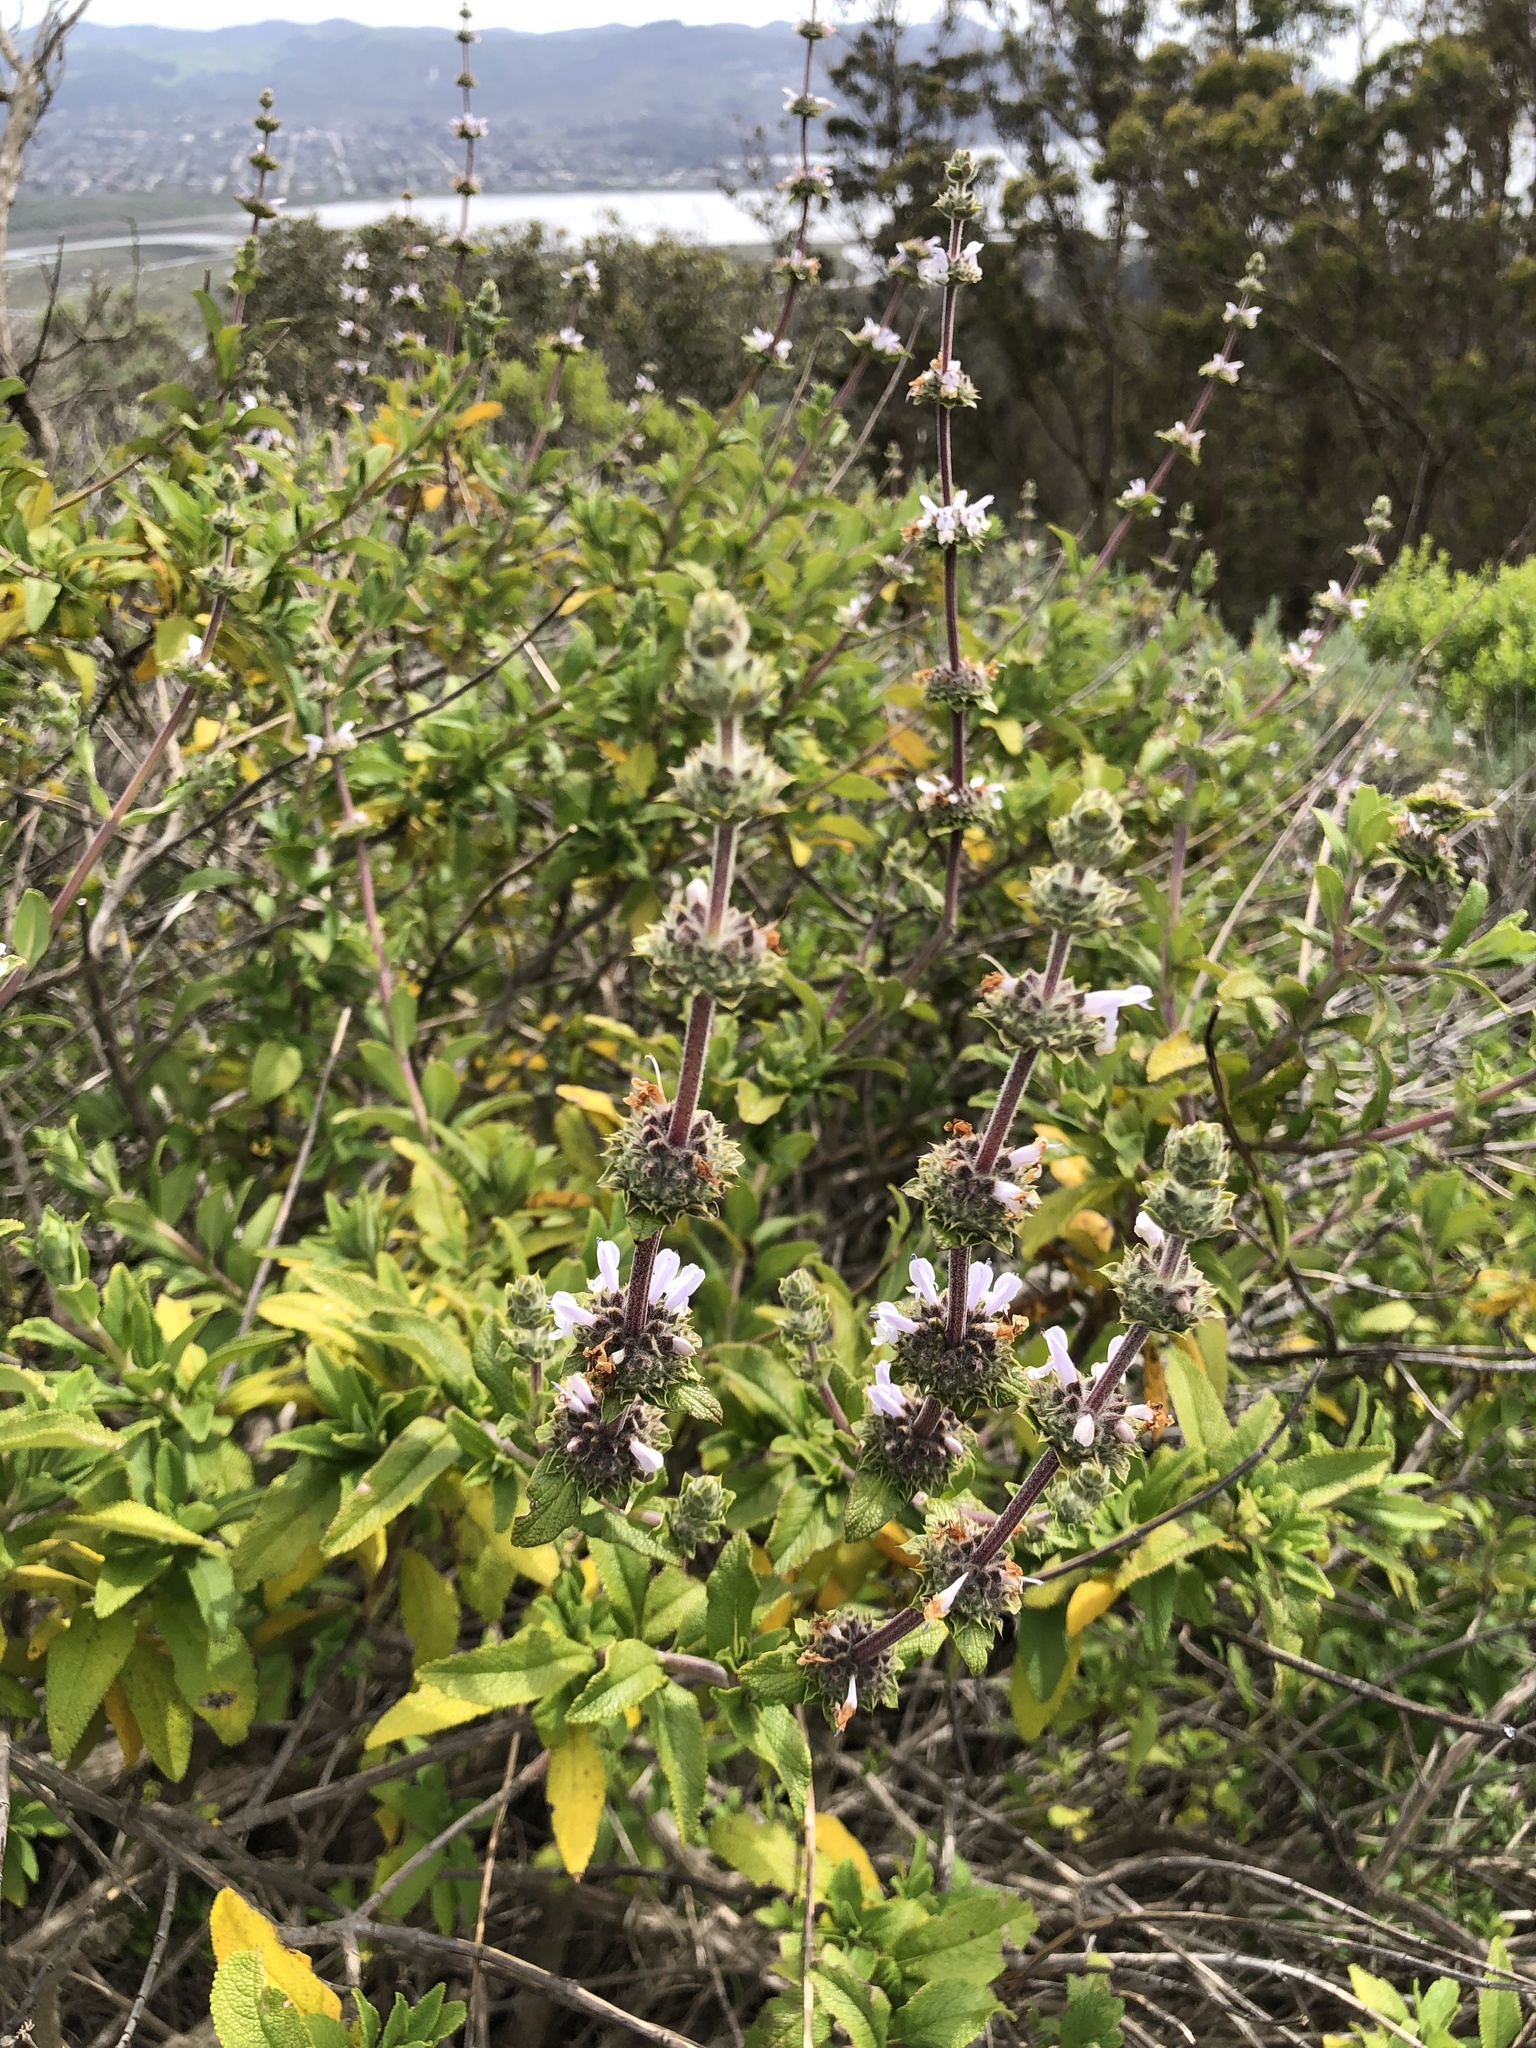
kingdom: Plantae
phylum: Tracheophyta
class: Magnoliopsida
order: Lamiales
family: Lamiaceae
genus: Salvia
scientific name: Salvia mellifera
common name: Black sage
